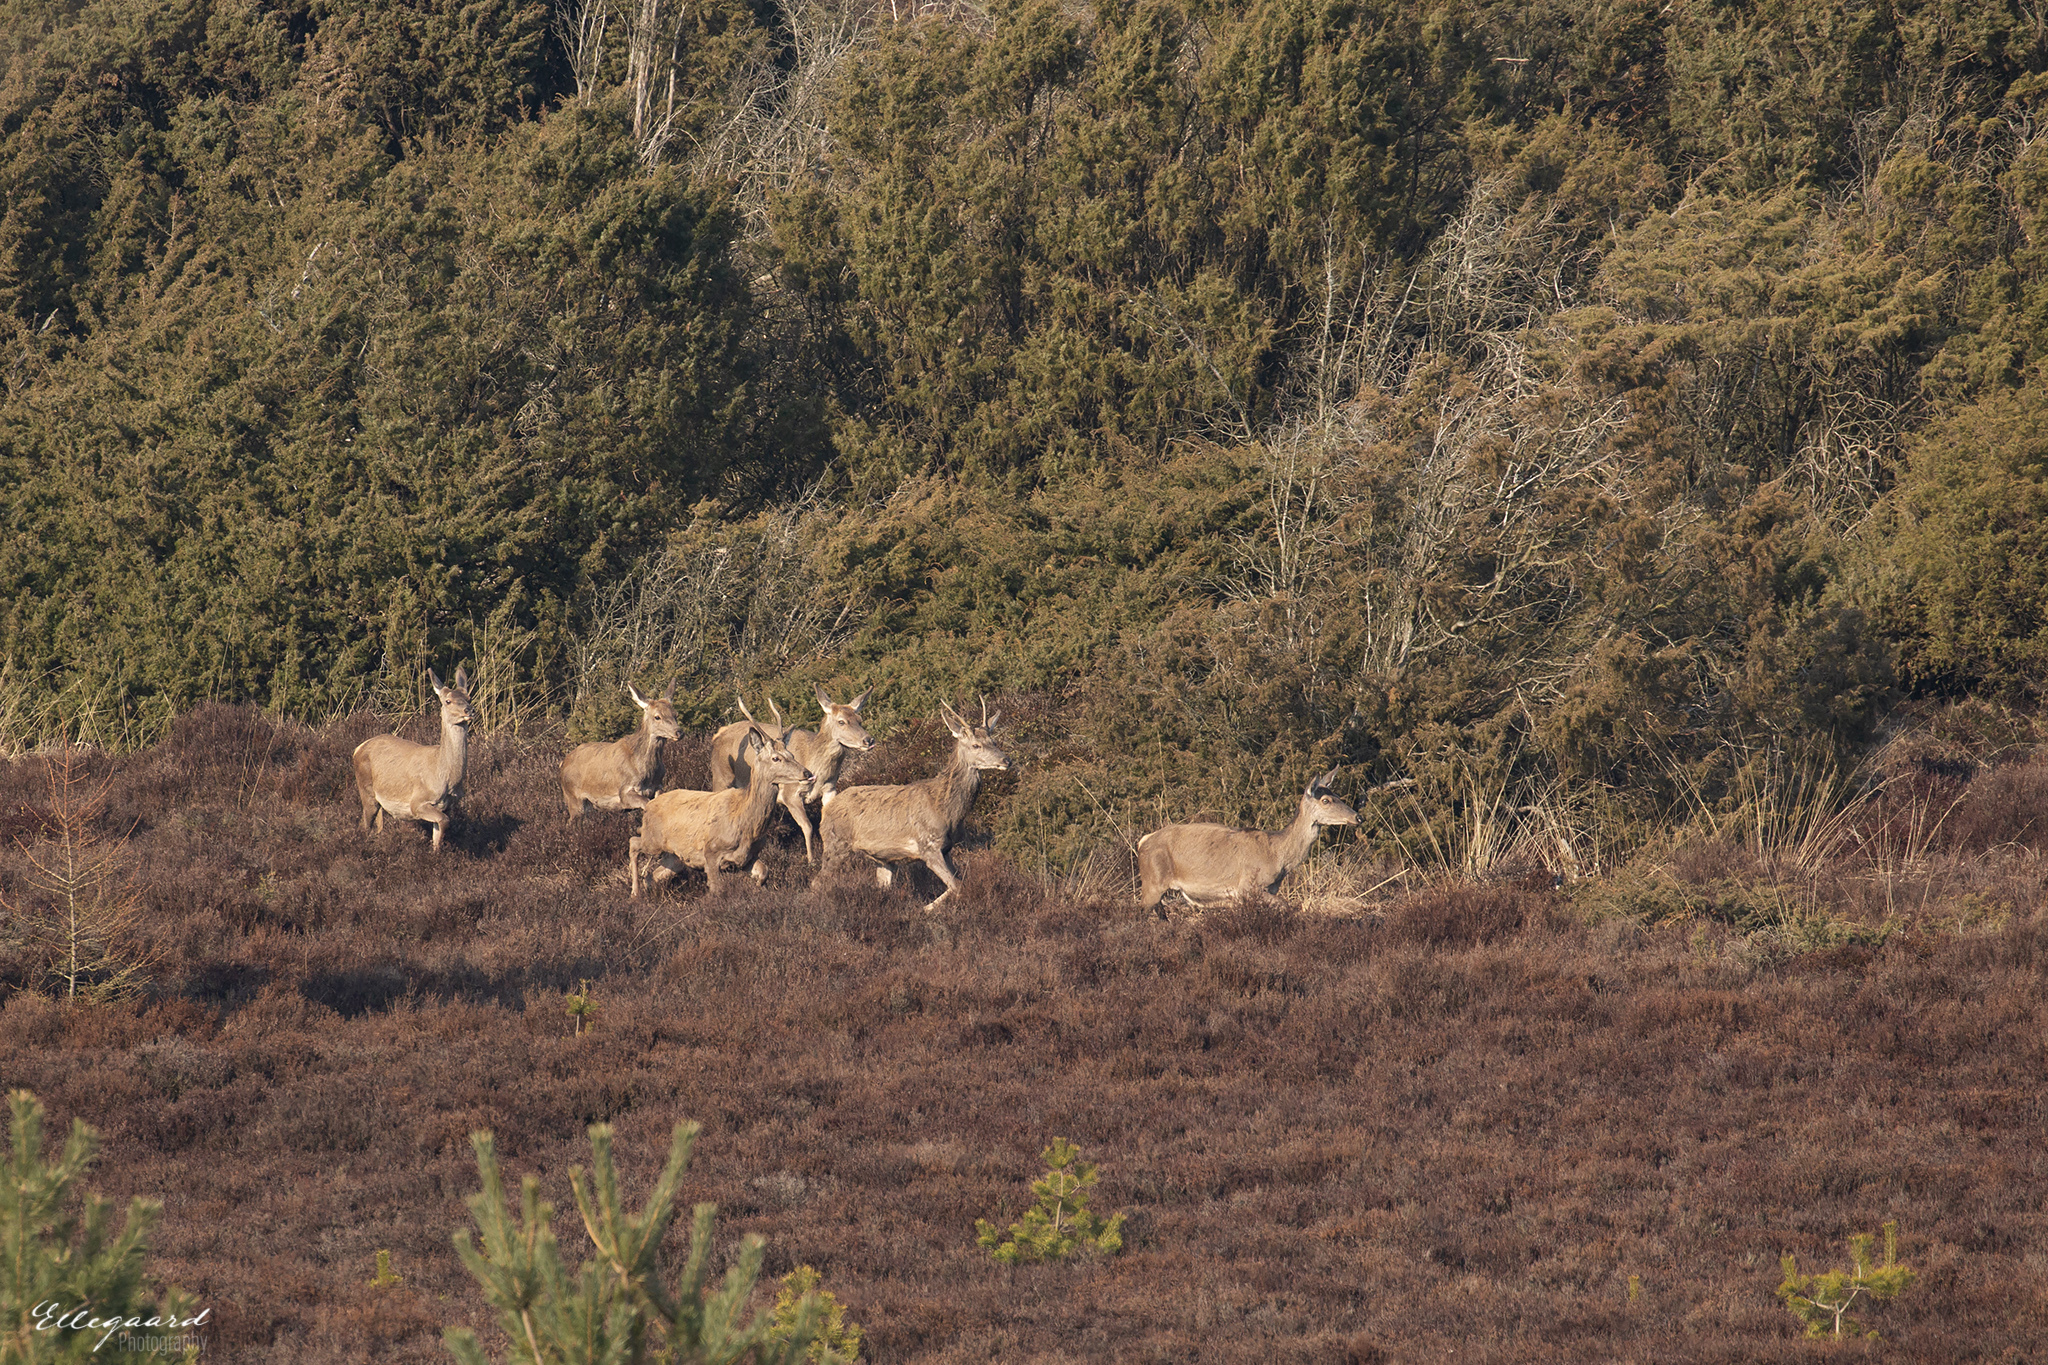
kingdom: Animalia
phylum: Chordata
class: Mammalia
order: Artiodactyla
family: Cervidae
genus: Cervus
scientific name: Cervus elaphus
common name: Red deer
